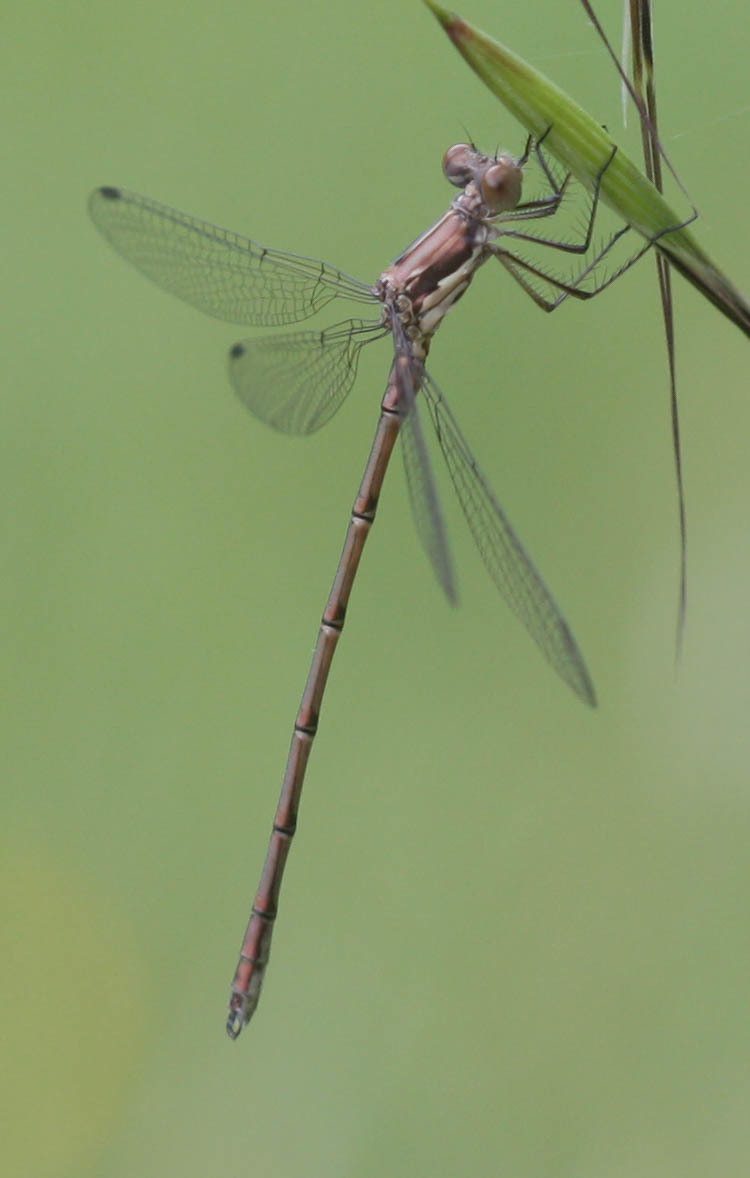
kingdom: Animalia
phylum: Arthropoda
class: Insecta
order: Odonata
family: Lestidae
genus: Lestes
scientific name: Lestes congener
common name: Spotted spreadwing
